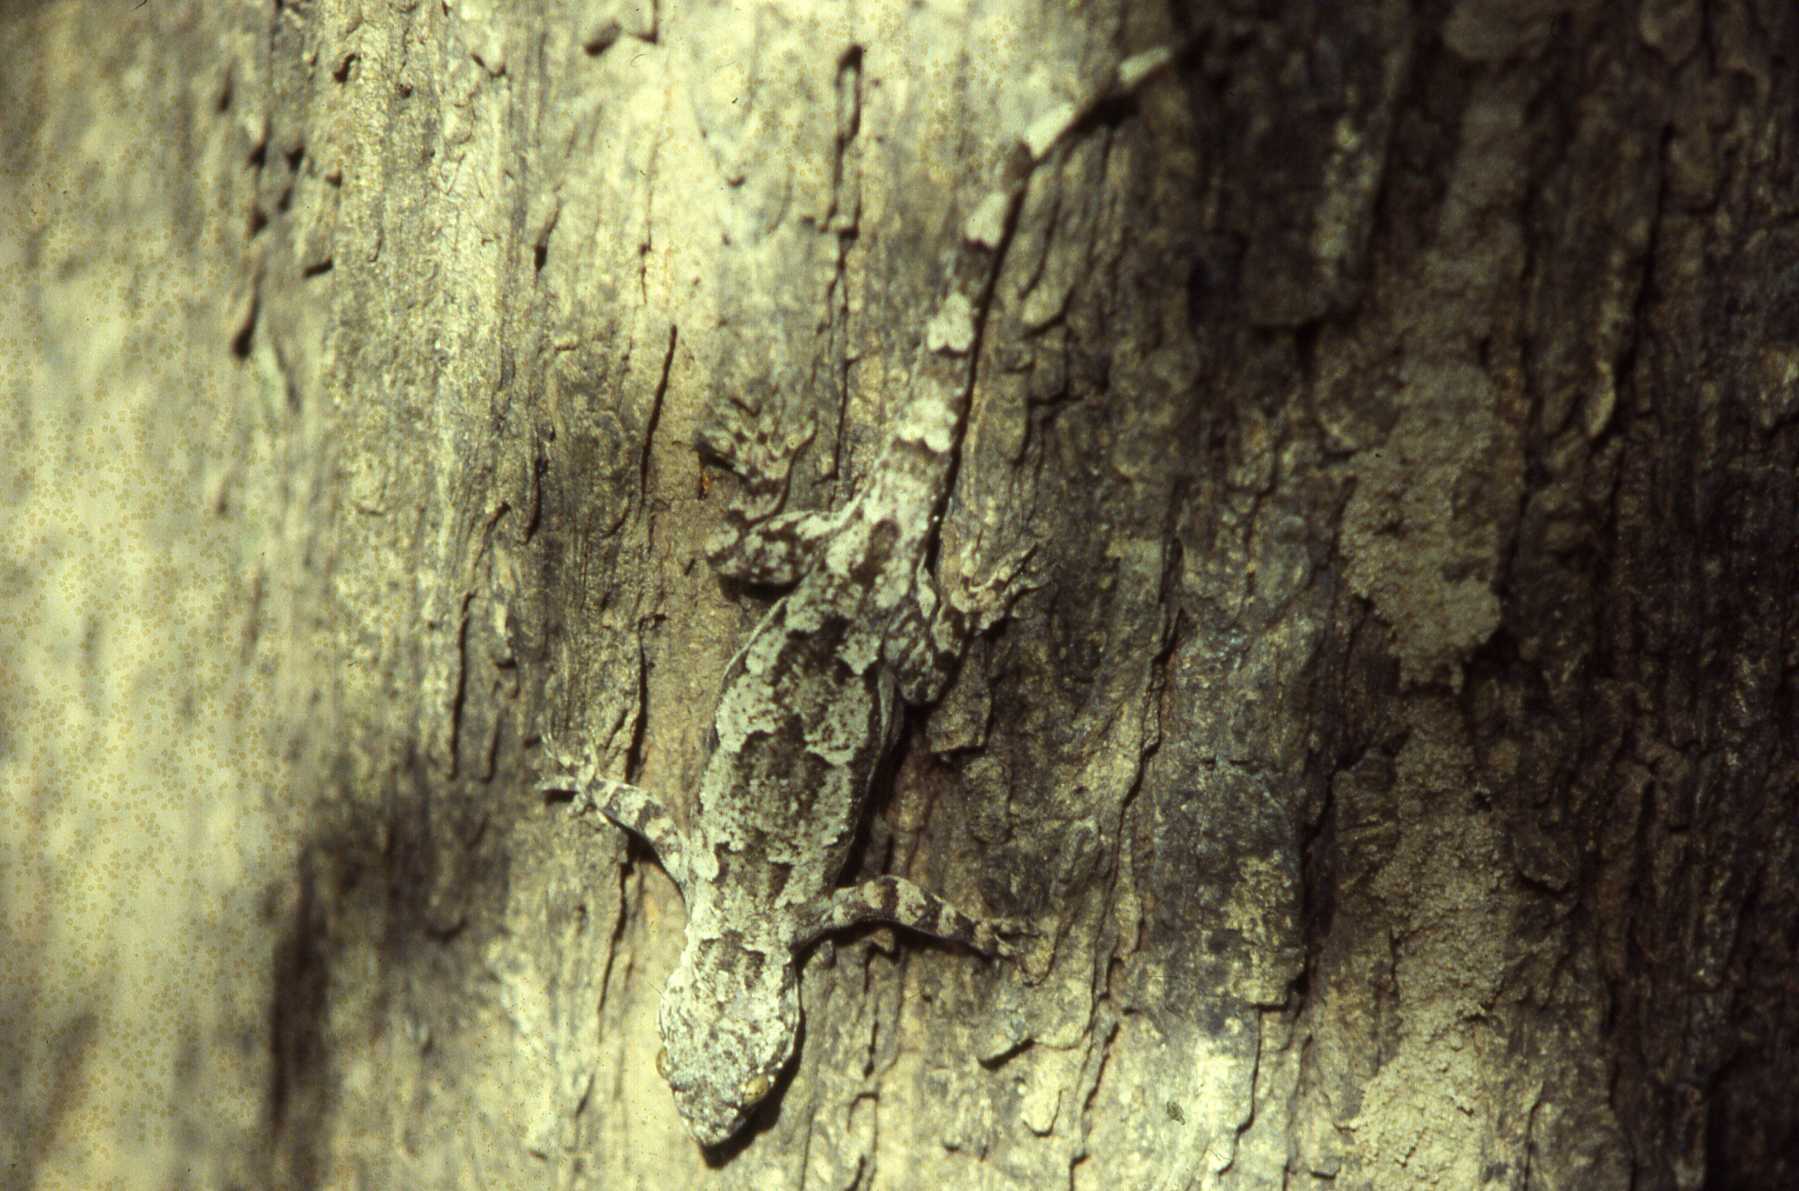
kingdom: Animalia
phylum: Chordata
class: Squamata
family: Gekkonidae
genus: Hemidactylus
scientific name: Hemidactylus platycephalus
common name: Baobab gecko
